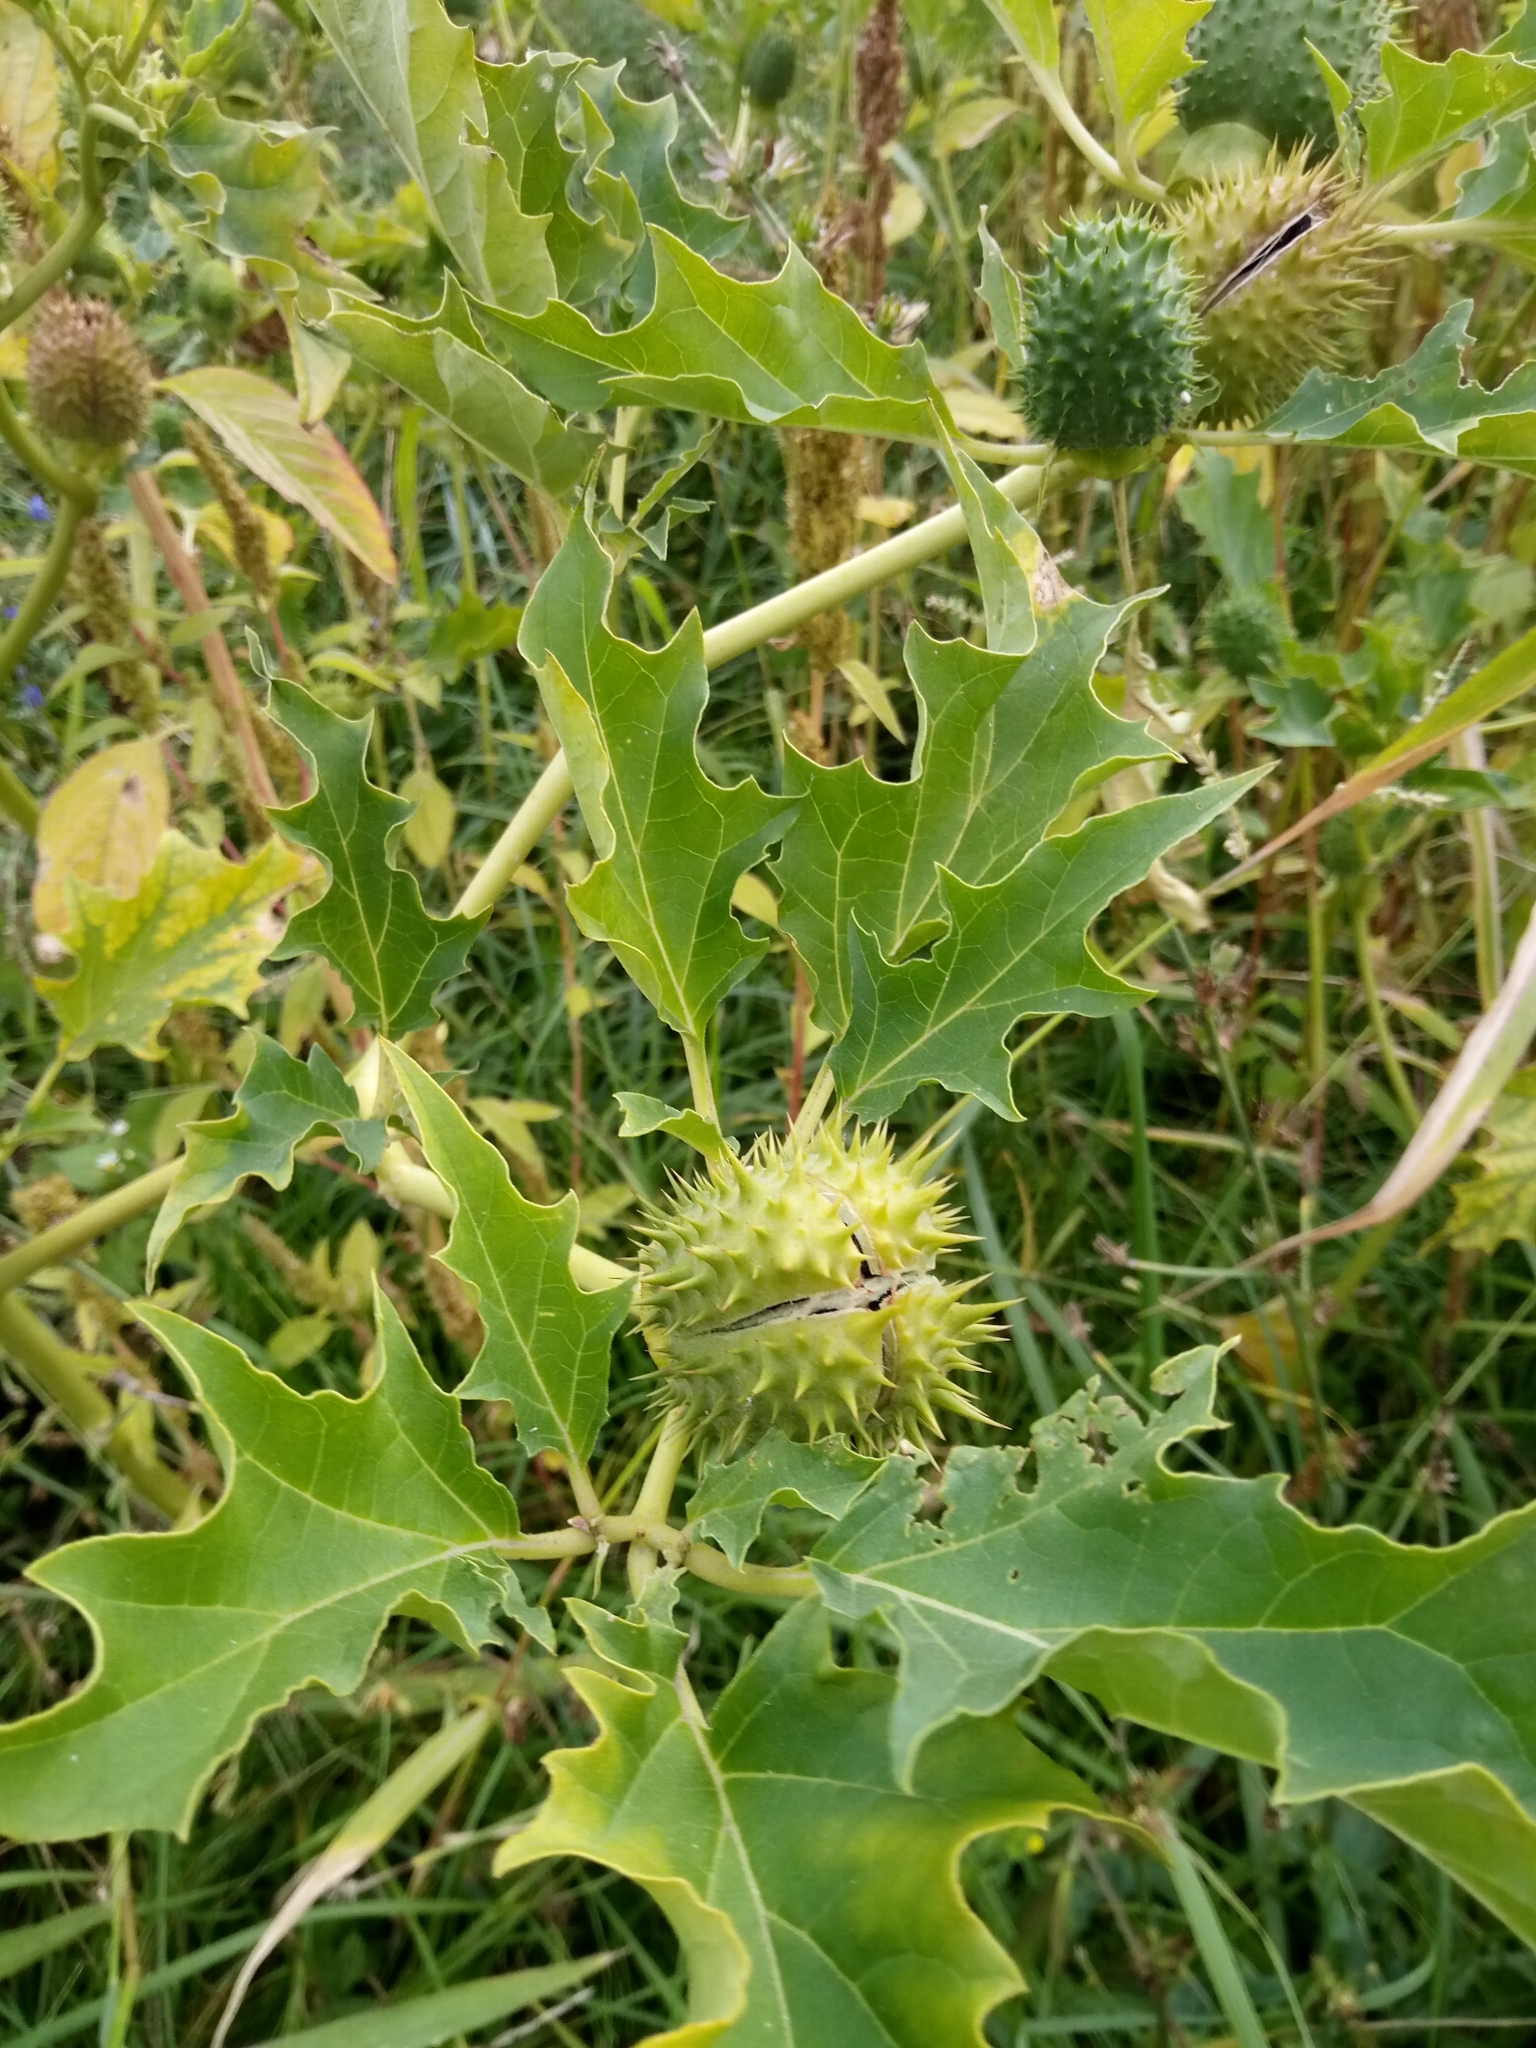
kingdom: Plantae
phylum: Tracheophyta
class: Magnoliopsida
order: Solanales
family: Solanaceae
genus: Datura
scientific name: Datura stramonium
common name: Thorn-apple
